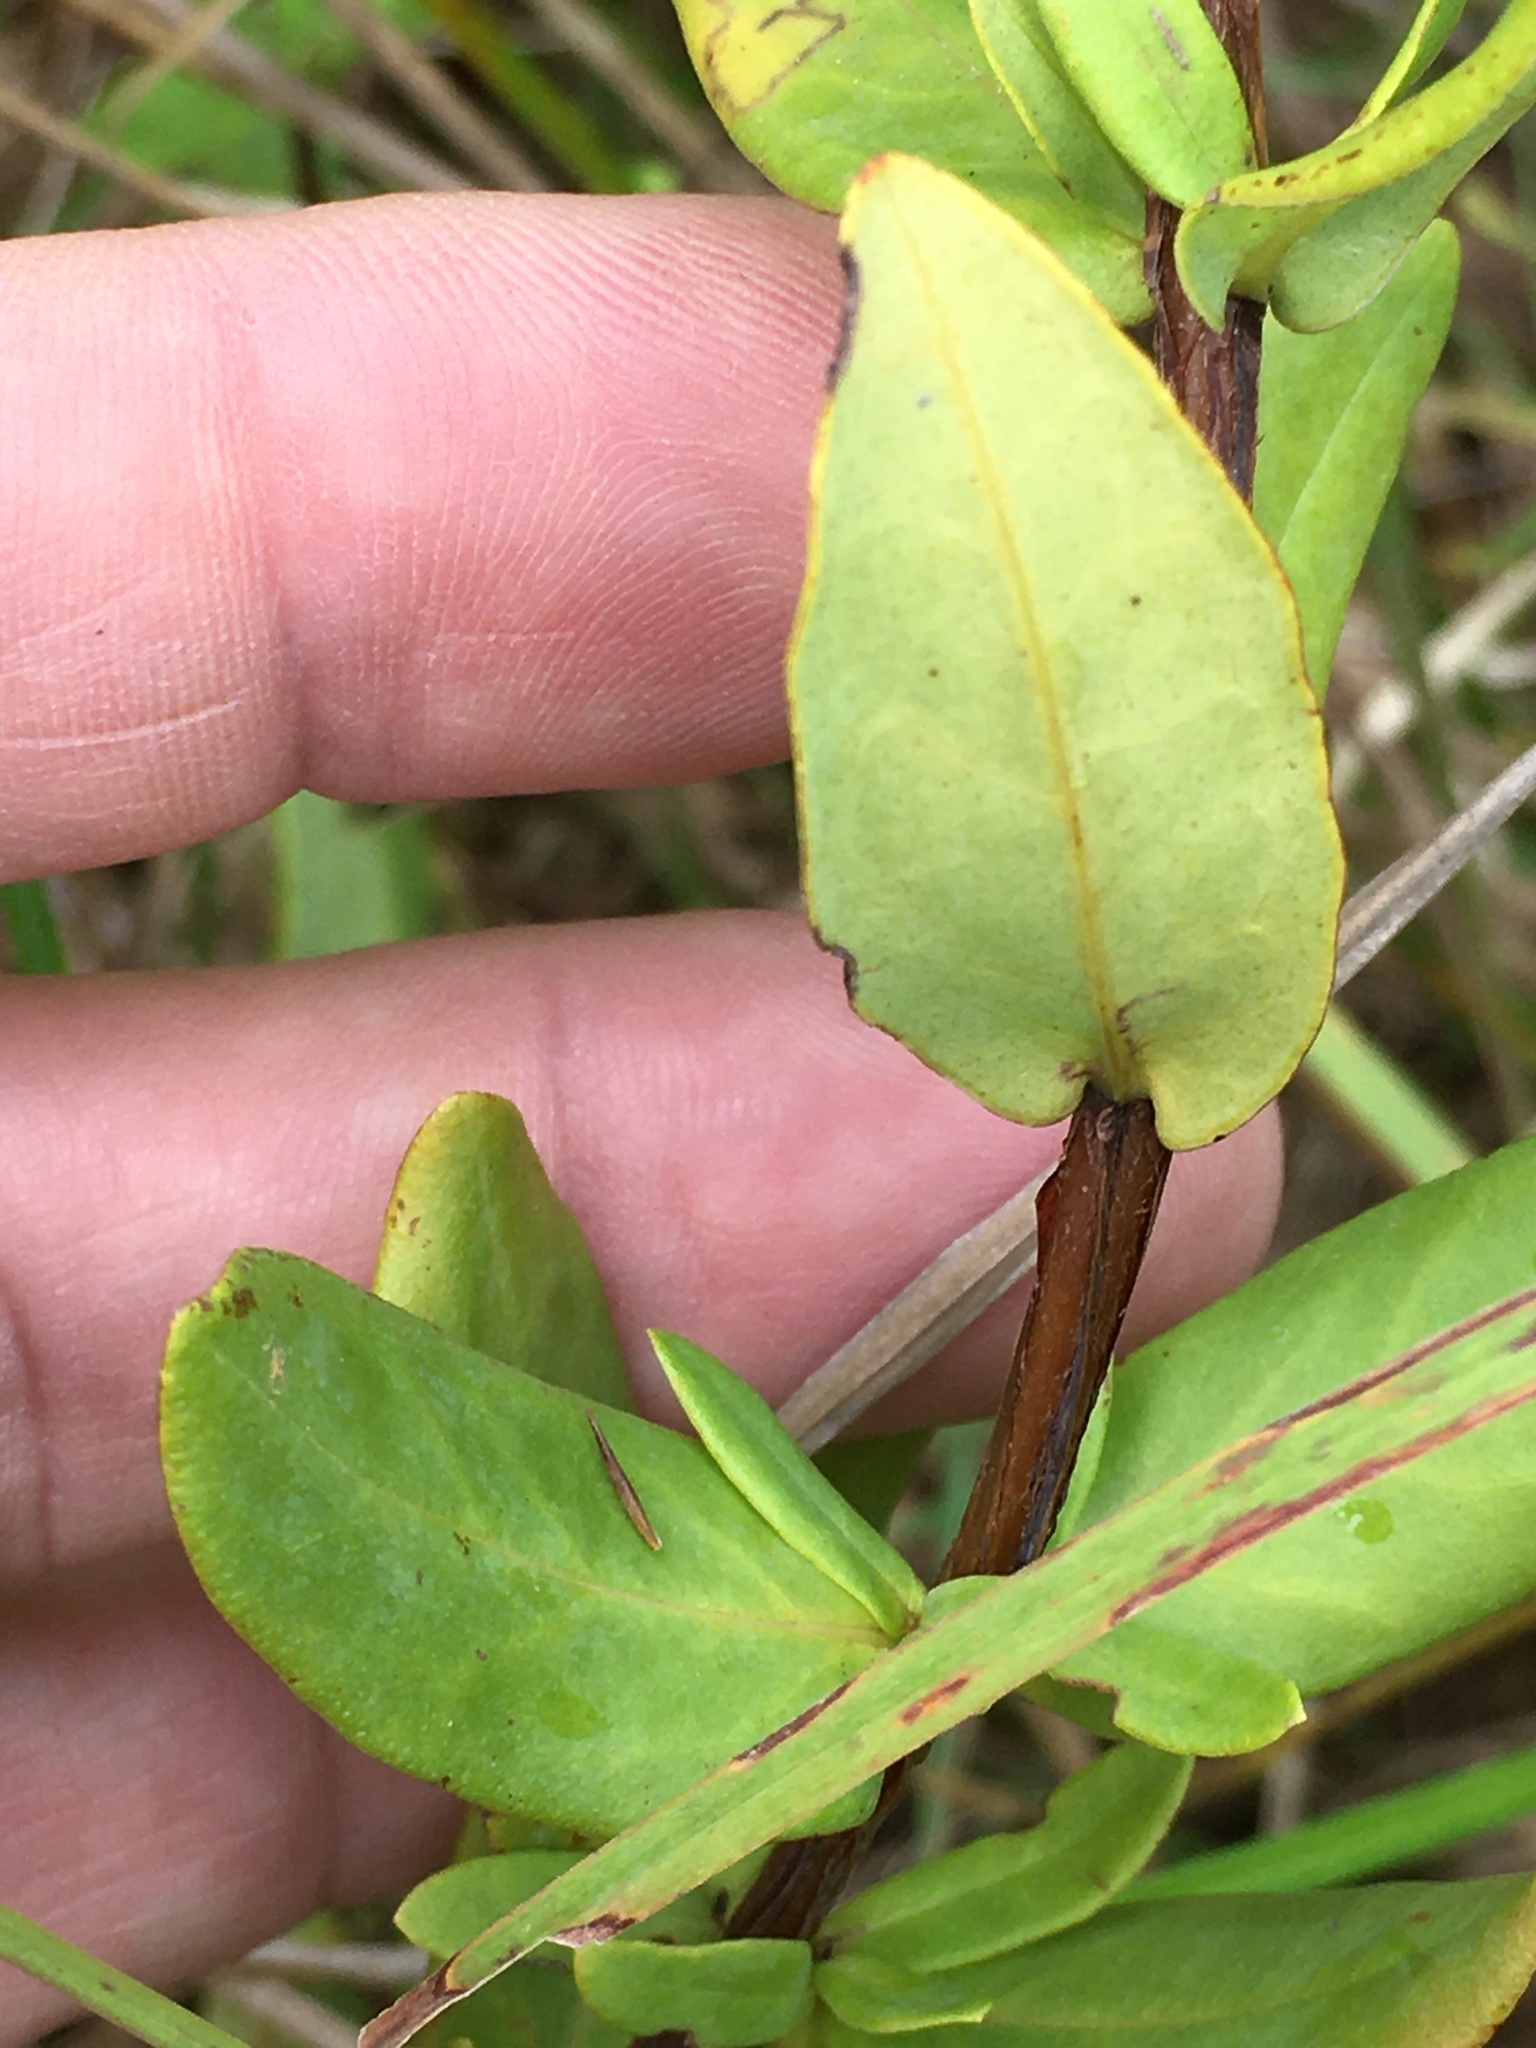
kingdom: Plantae
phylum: Tracheophyta
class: Magnoliopsida
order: Malpighiales
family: Hypericaceae
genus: Hypericum
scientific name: Hypericum crux-andreae
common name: St.-peter's-wort
